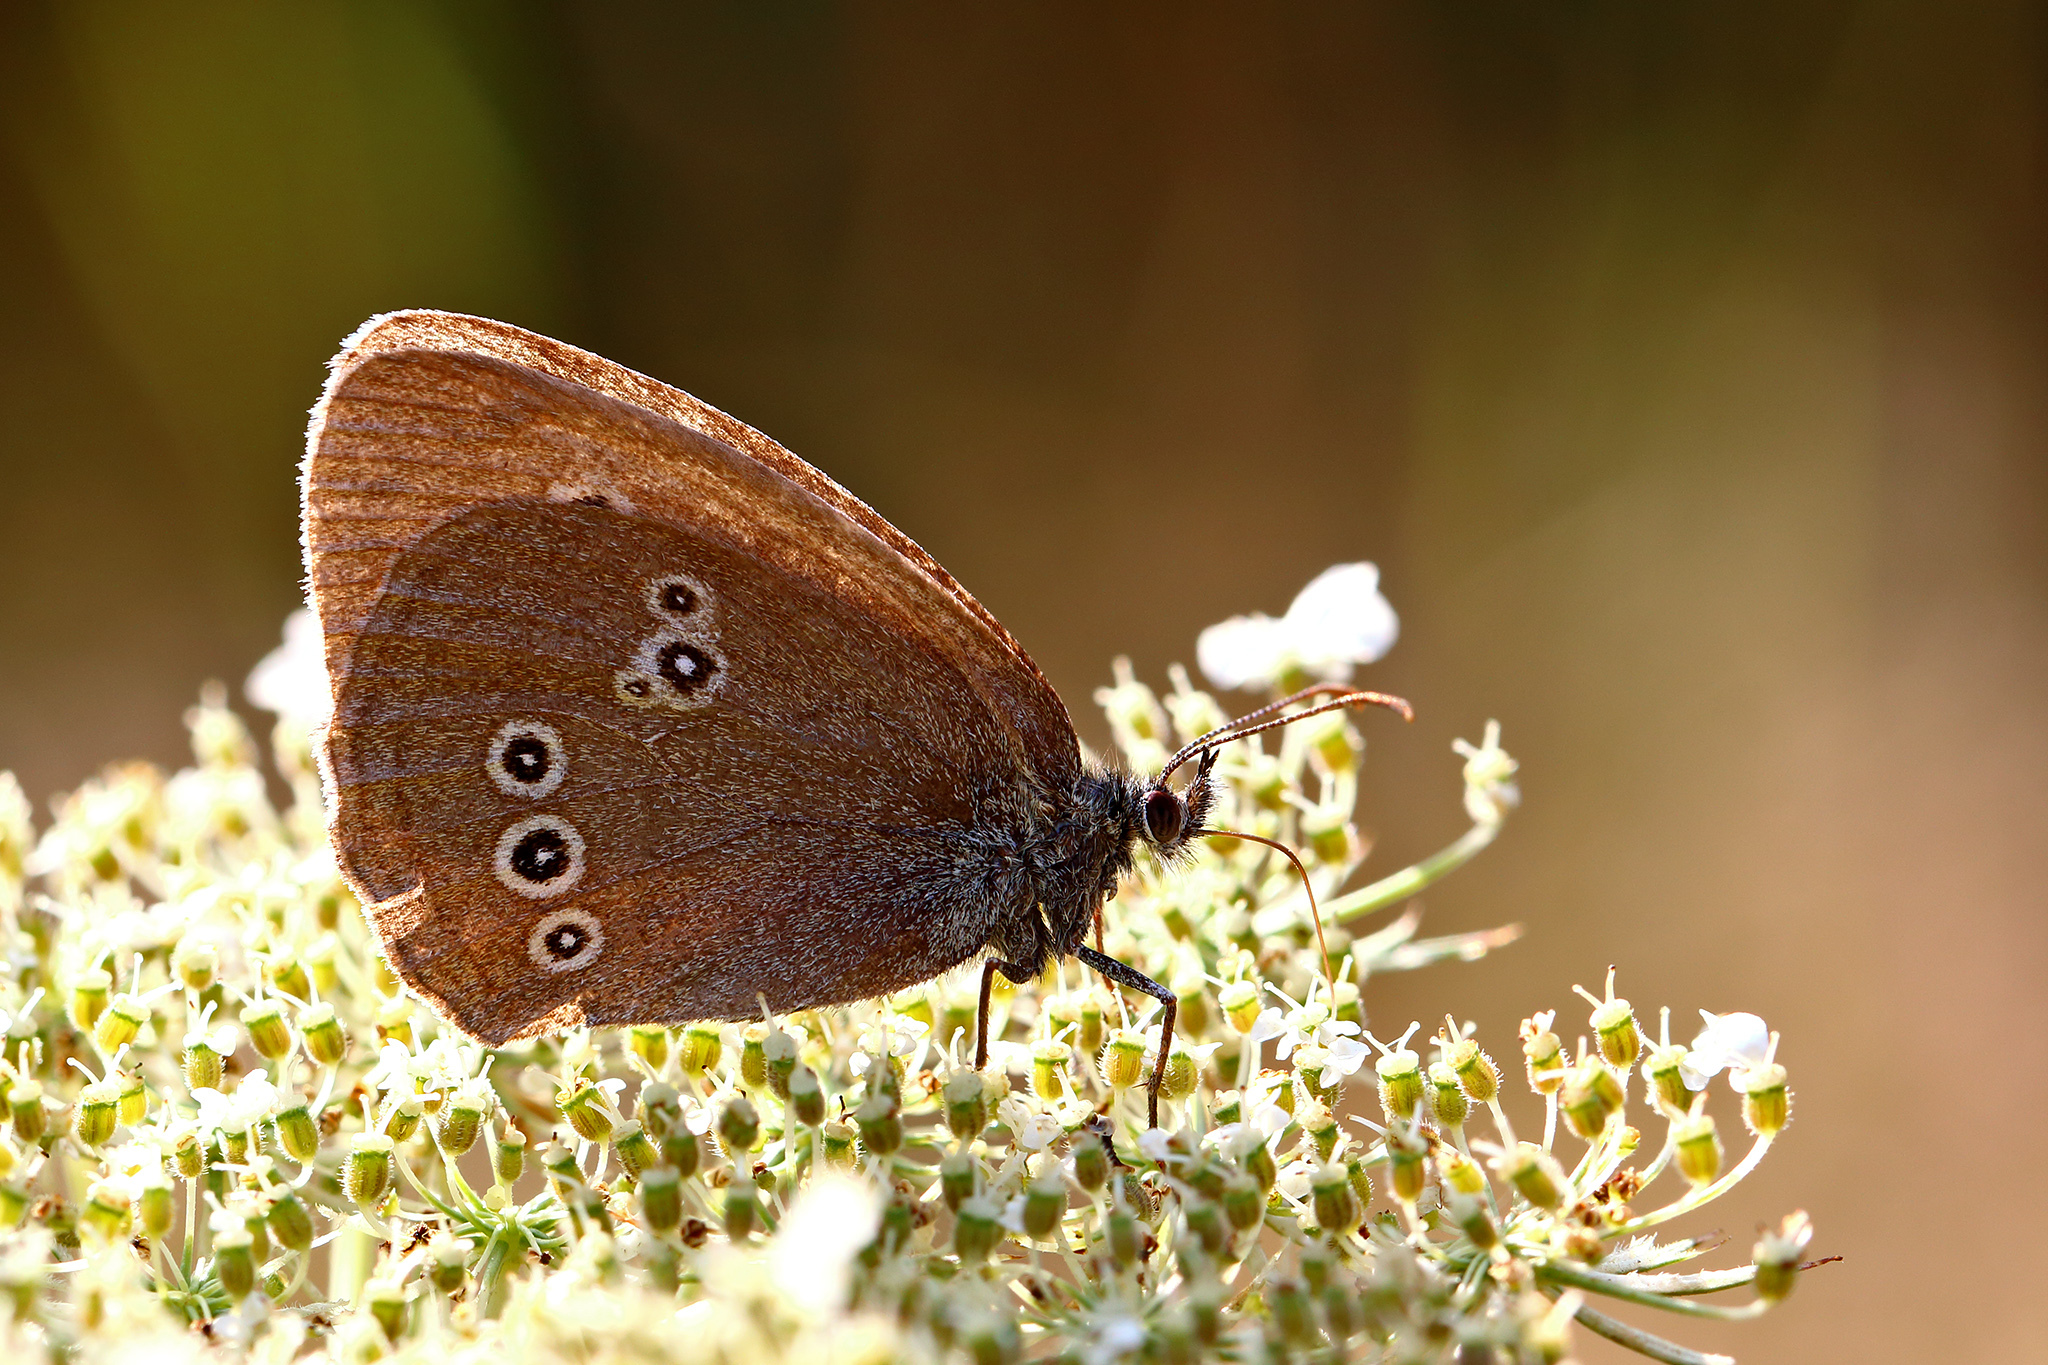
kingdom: Animalia
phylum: Arthropoda
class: Insecta
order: Lepidoptera
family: Nymphalidae
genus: Aphantopus
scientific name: Aphantopus hyperantus
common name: Ringlet
